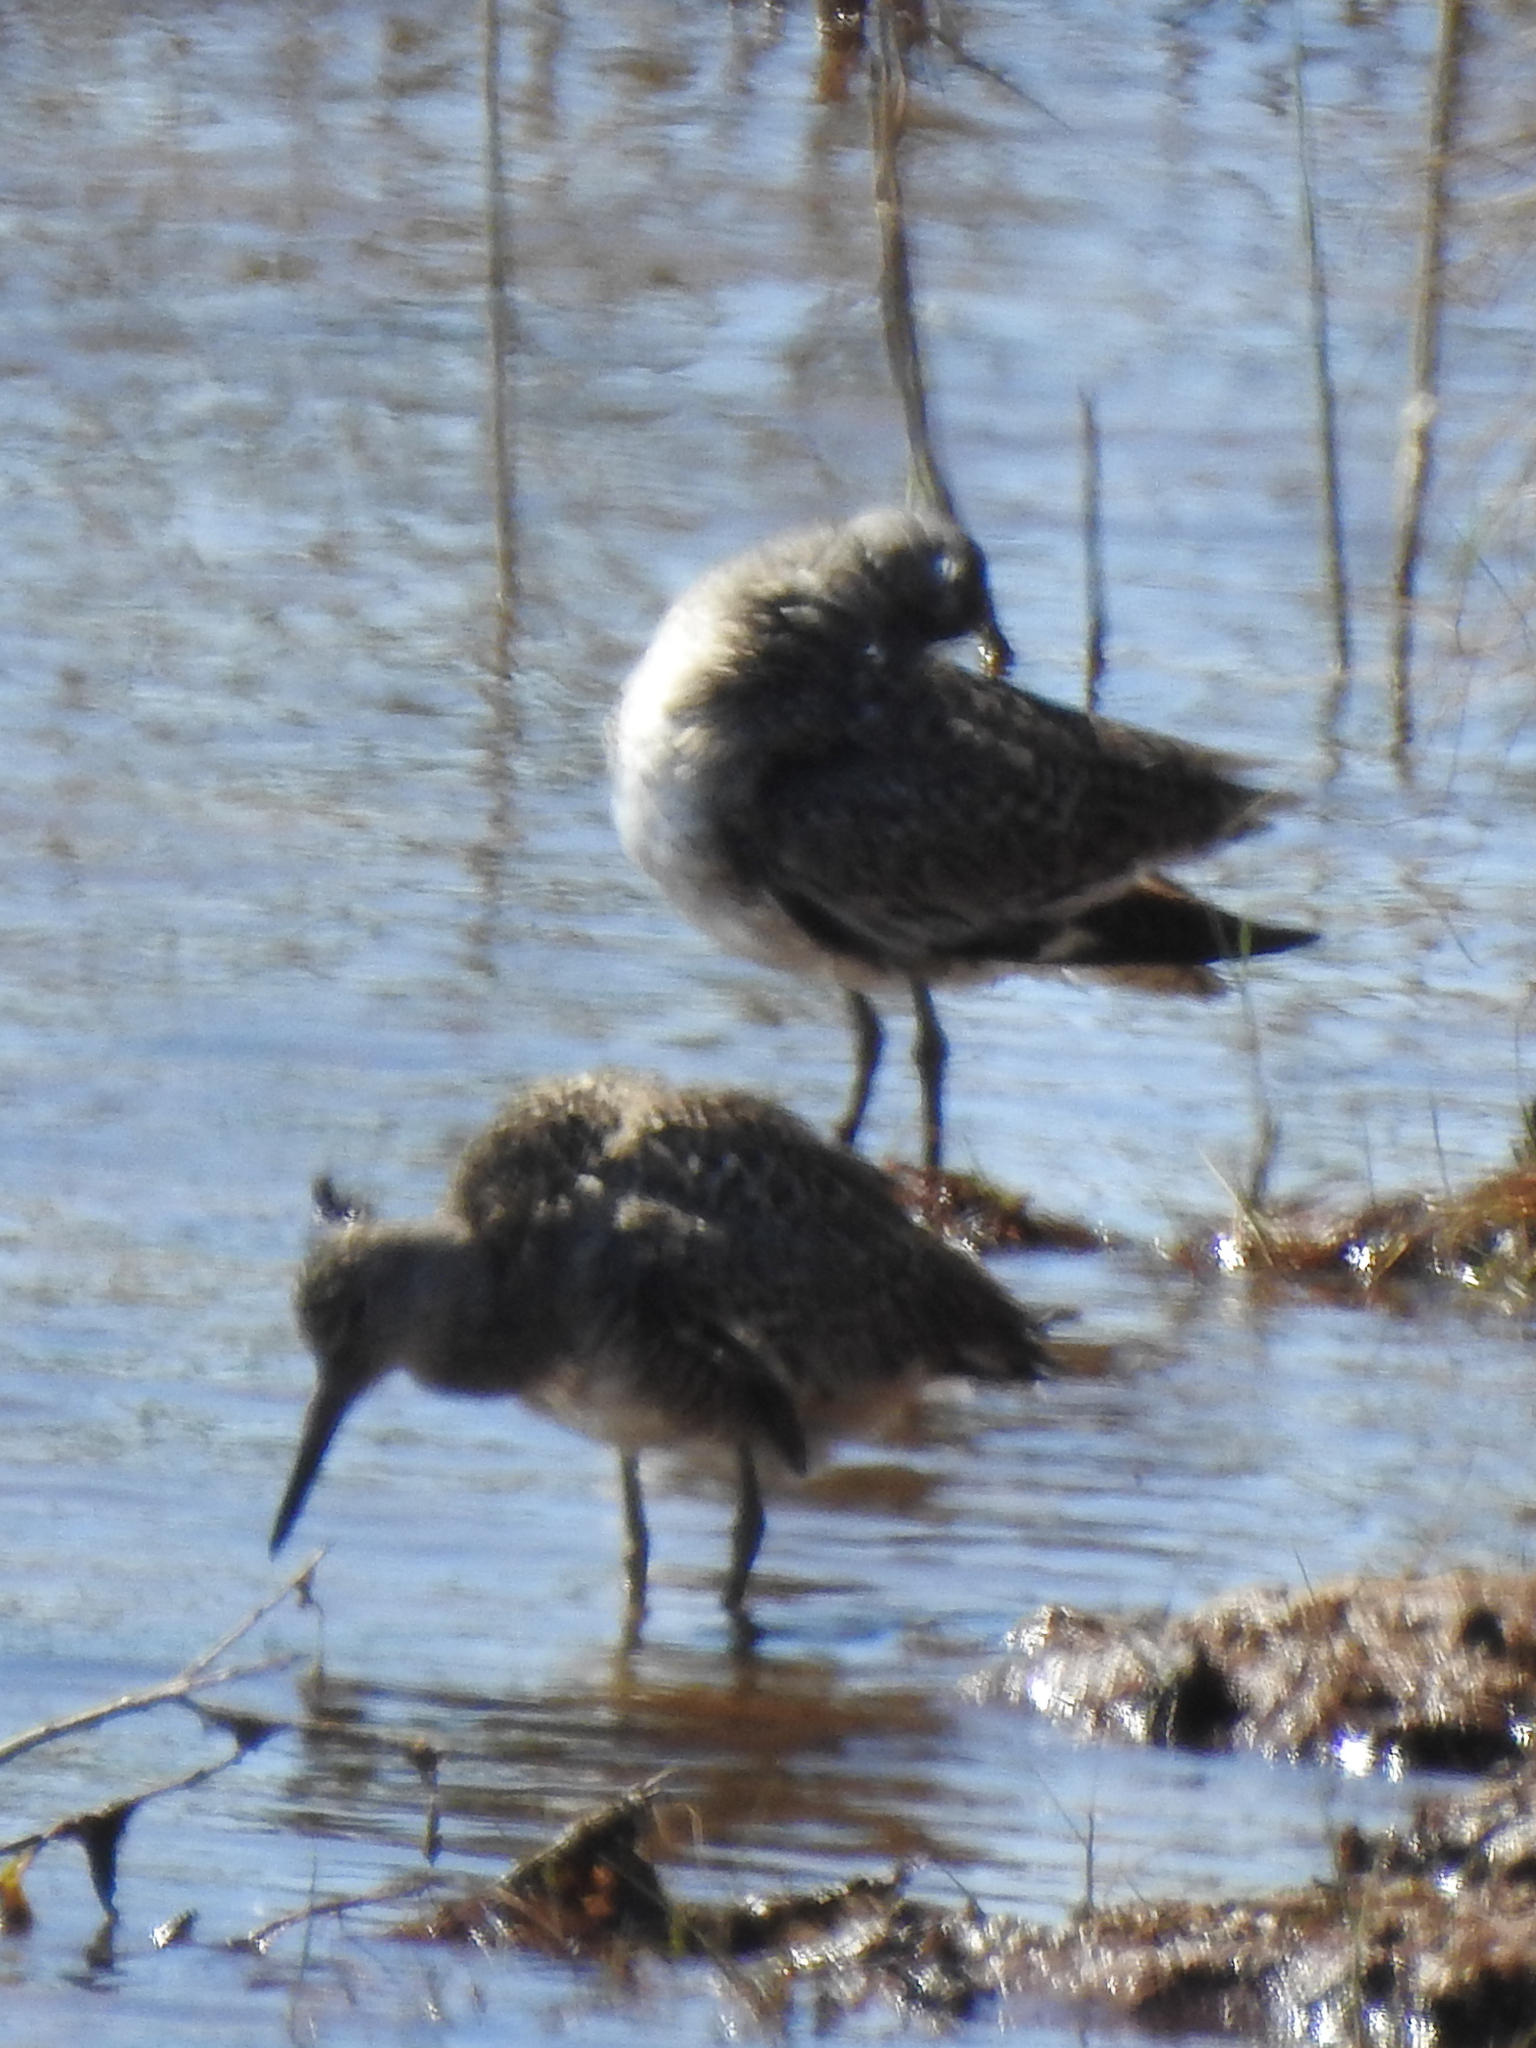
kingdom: Animalia
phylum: Chordata
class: Aves
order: Charadriiformes
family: Scolopacidae
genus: Tringa
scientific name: Tringa semipalmata
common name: Willet
